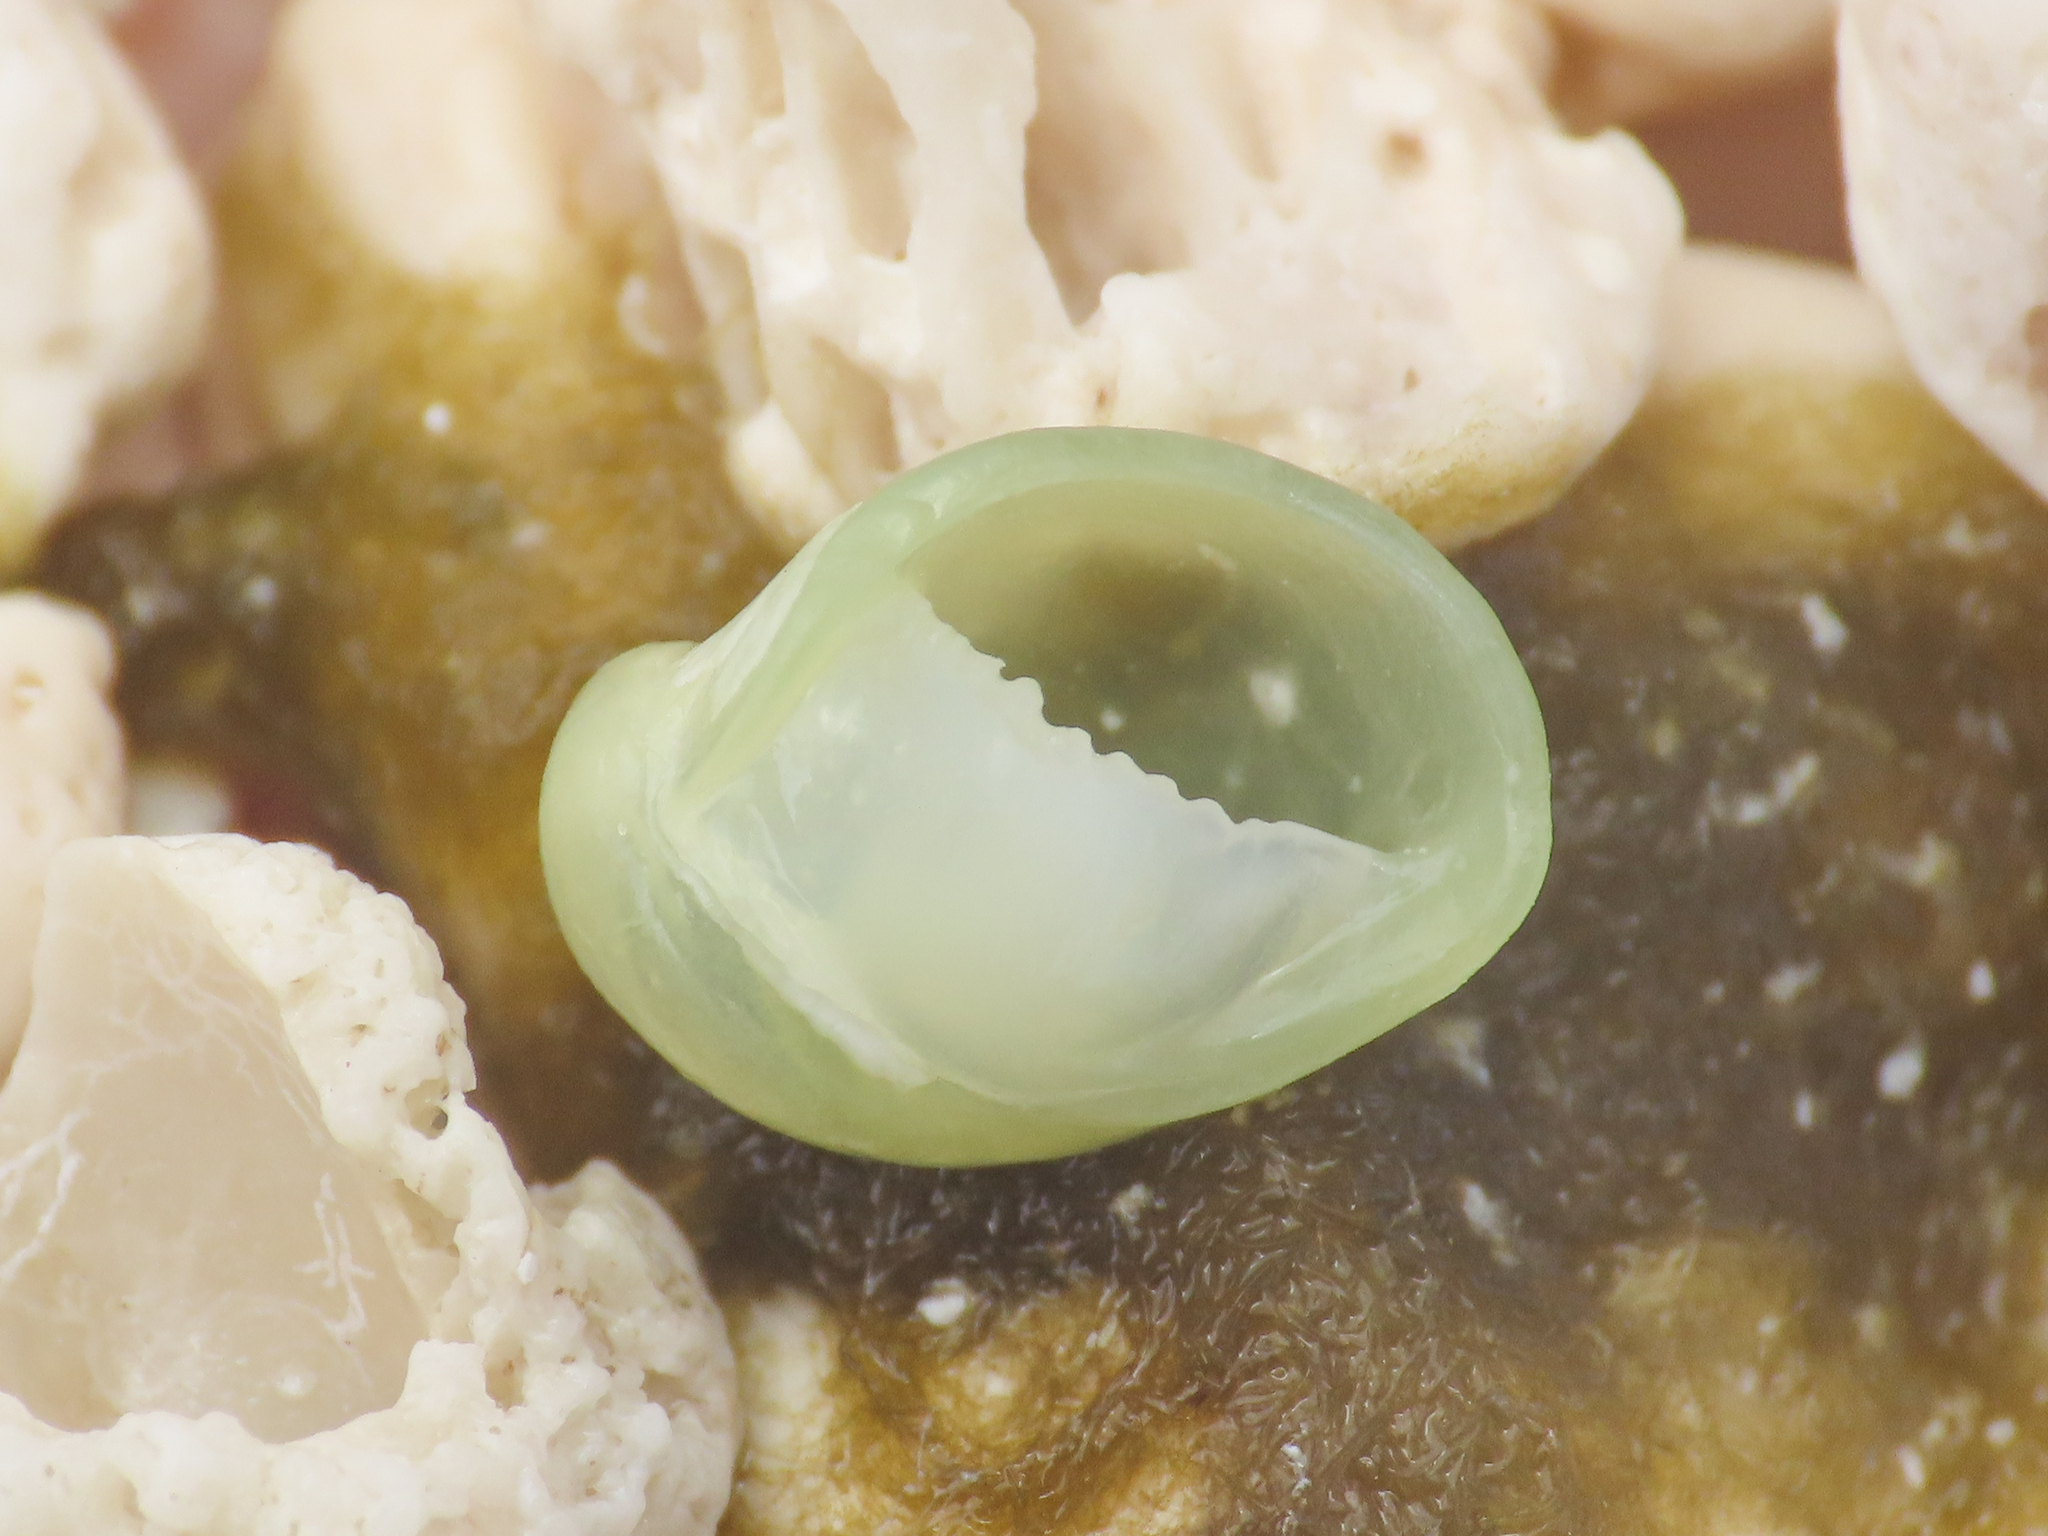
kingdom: Animalia
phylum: Mollusca
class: Gastropoda
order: Cycloneritida
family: Neritidae
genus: Smaragdia
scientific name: Smaragdia rangiana
